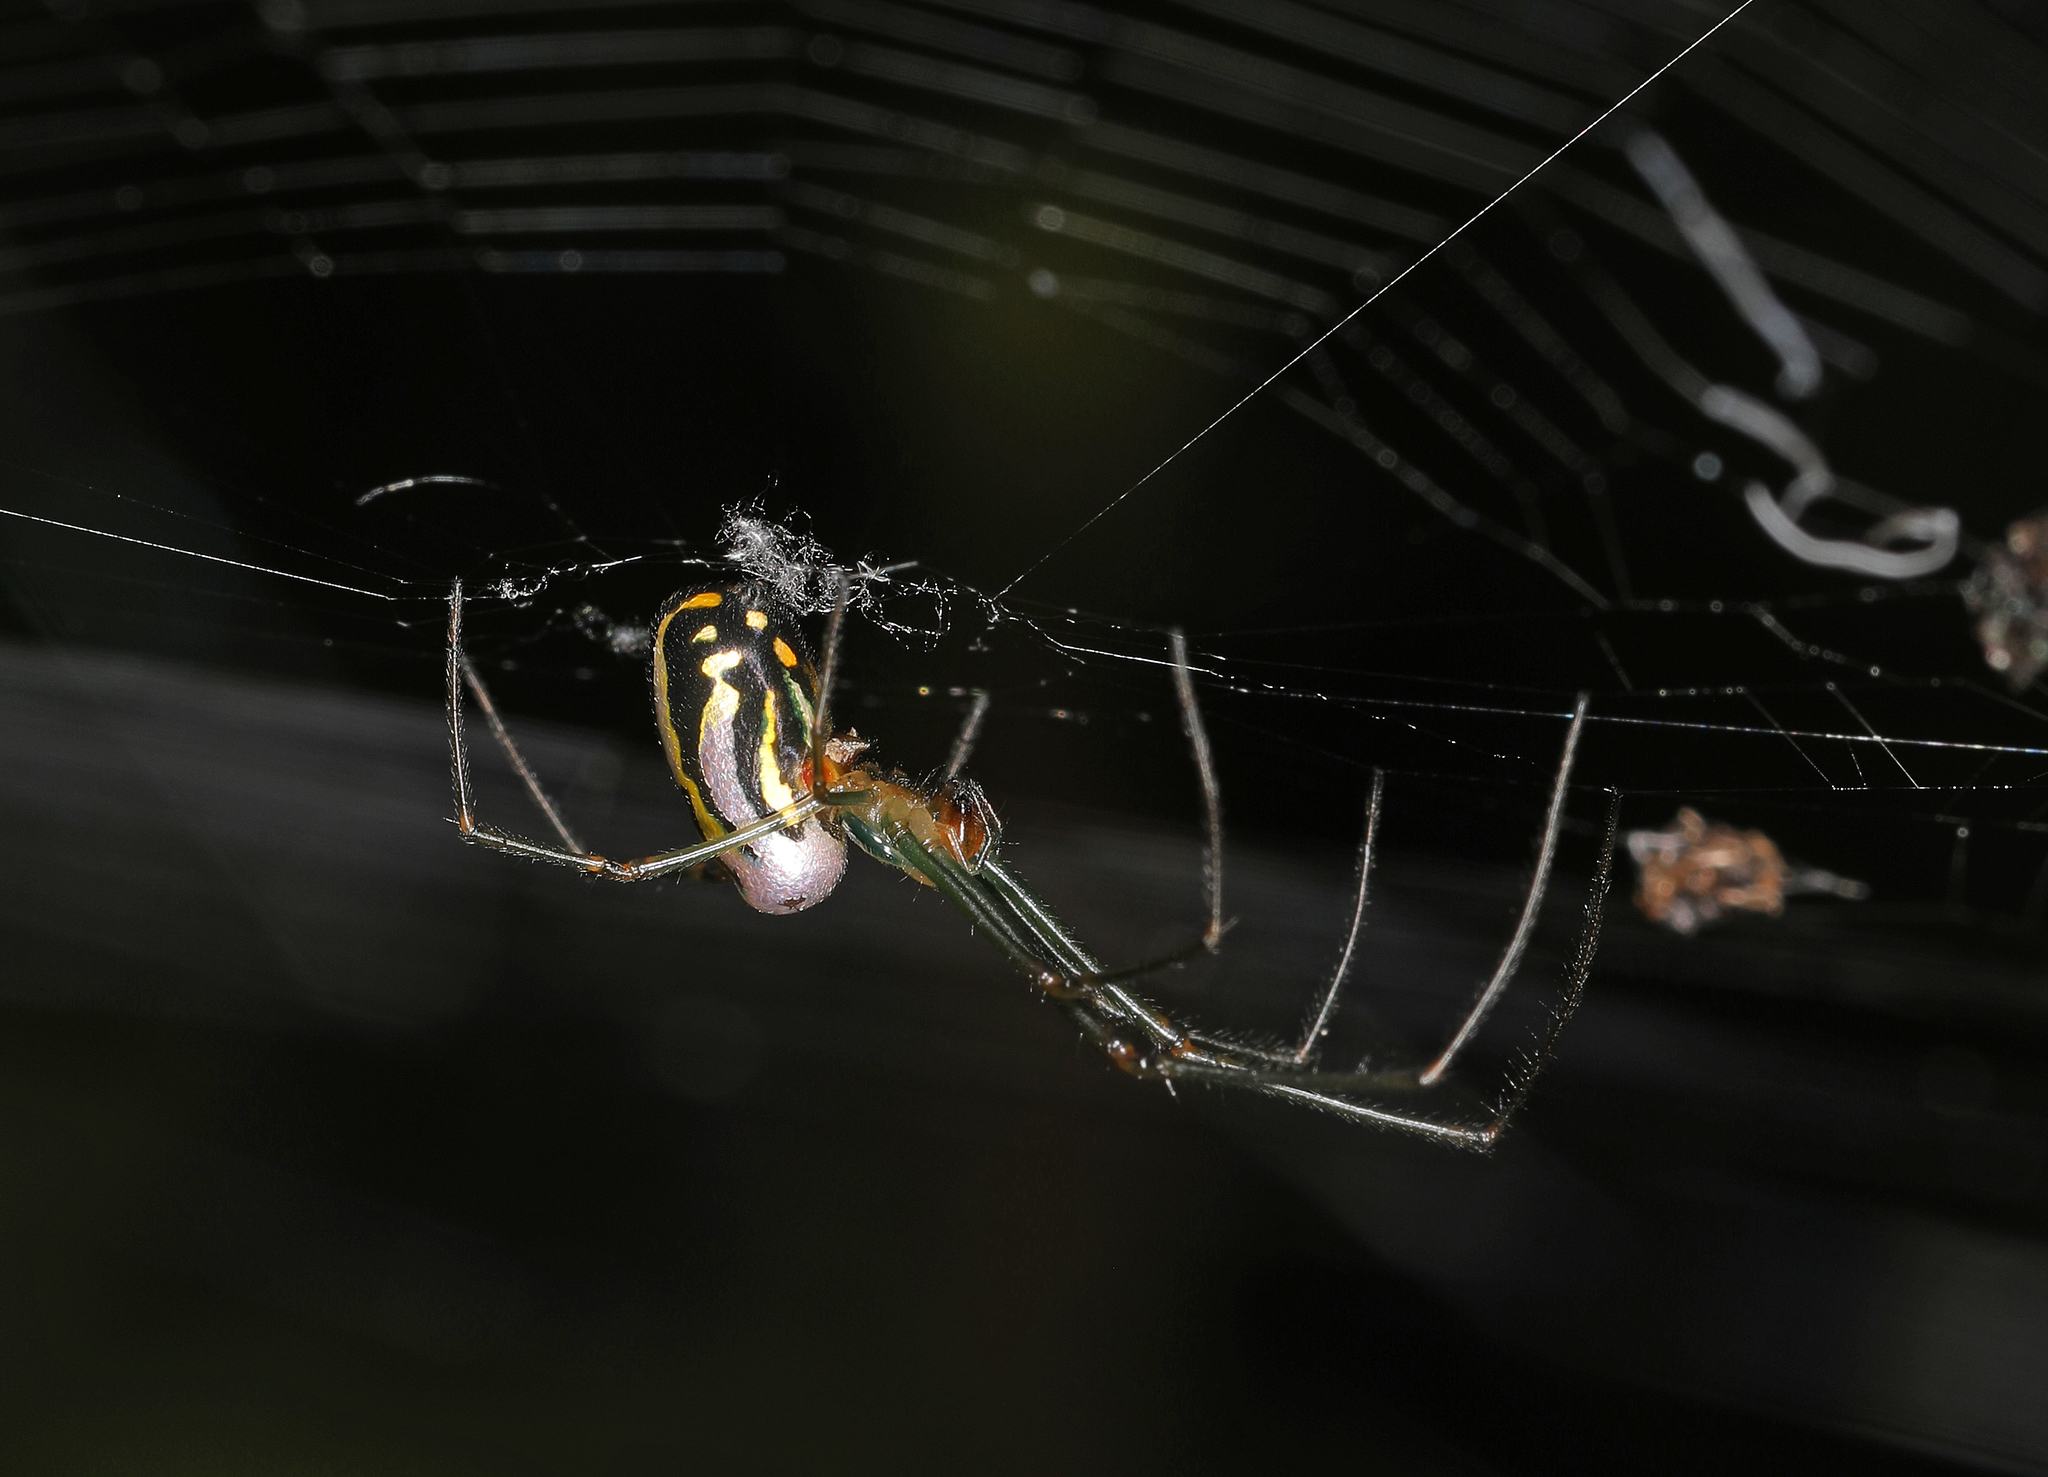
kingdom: Animalia
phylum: Arthropoda
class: Arachnida
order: Araneae
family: Tetragnathidae
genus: Leucauge
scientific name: Leucauge argyra
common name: Longjawed orb weavers
